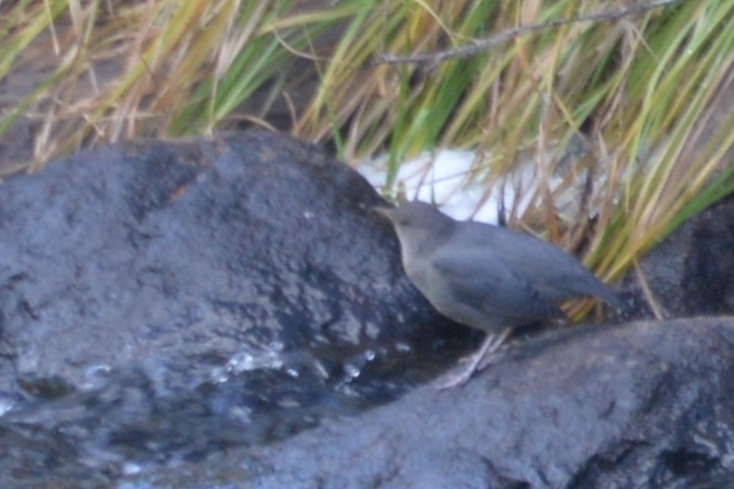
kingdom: Animalia
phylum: Chordata
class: Aves
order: Passeriformes
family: Cinclidae
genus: Cinclus
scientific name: Cinclus mexicanus
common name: American dipper
